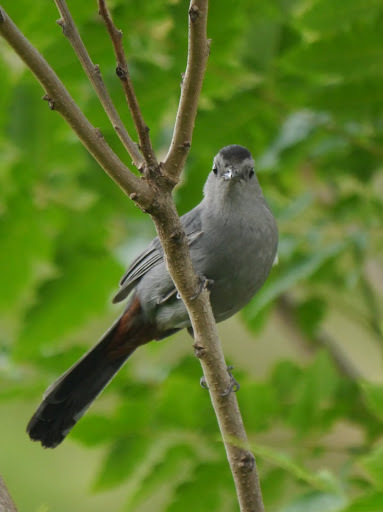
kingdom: Animalia
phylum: Chordata
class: Aves
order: Passeriformes
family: Mimidae
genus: Dumetella
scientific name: Dumetella carolinensis
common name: Gray catbird
